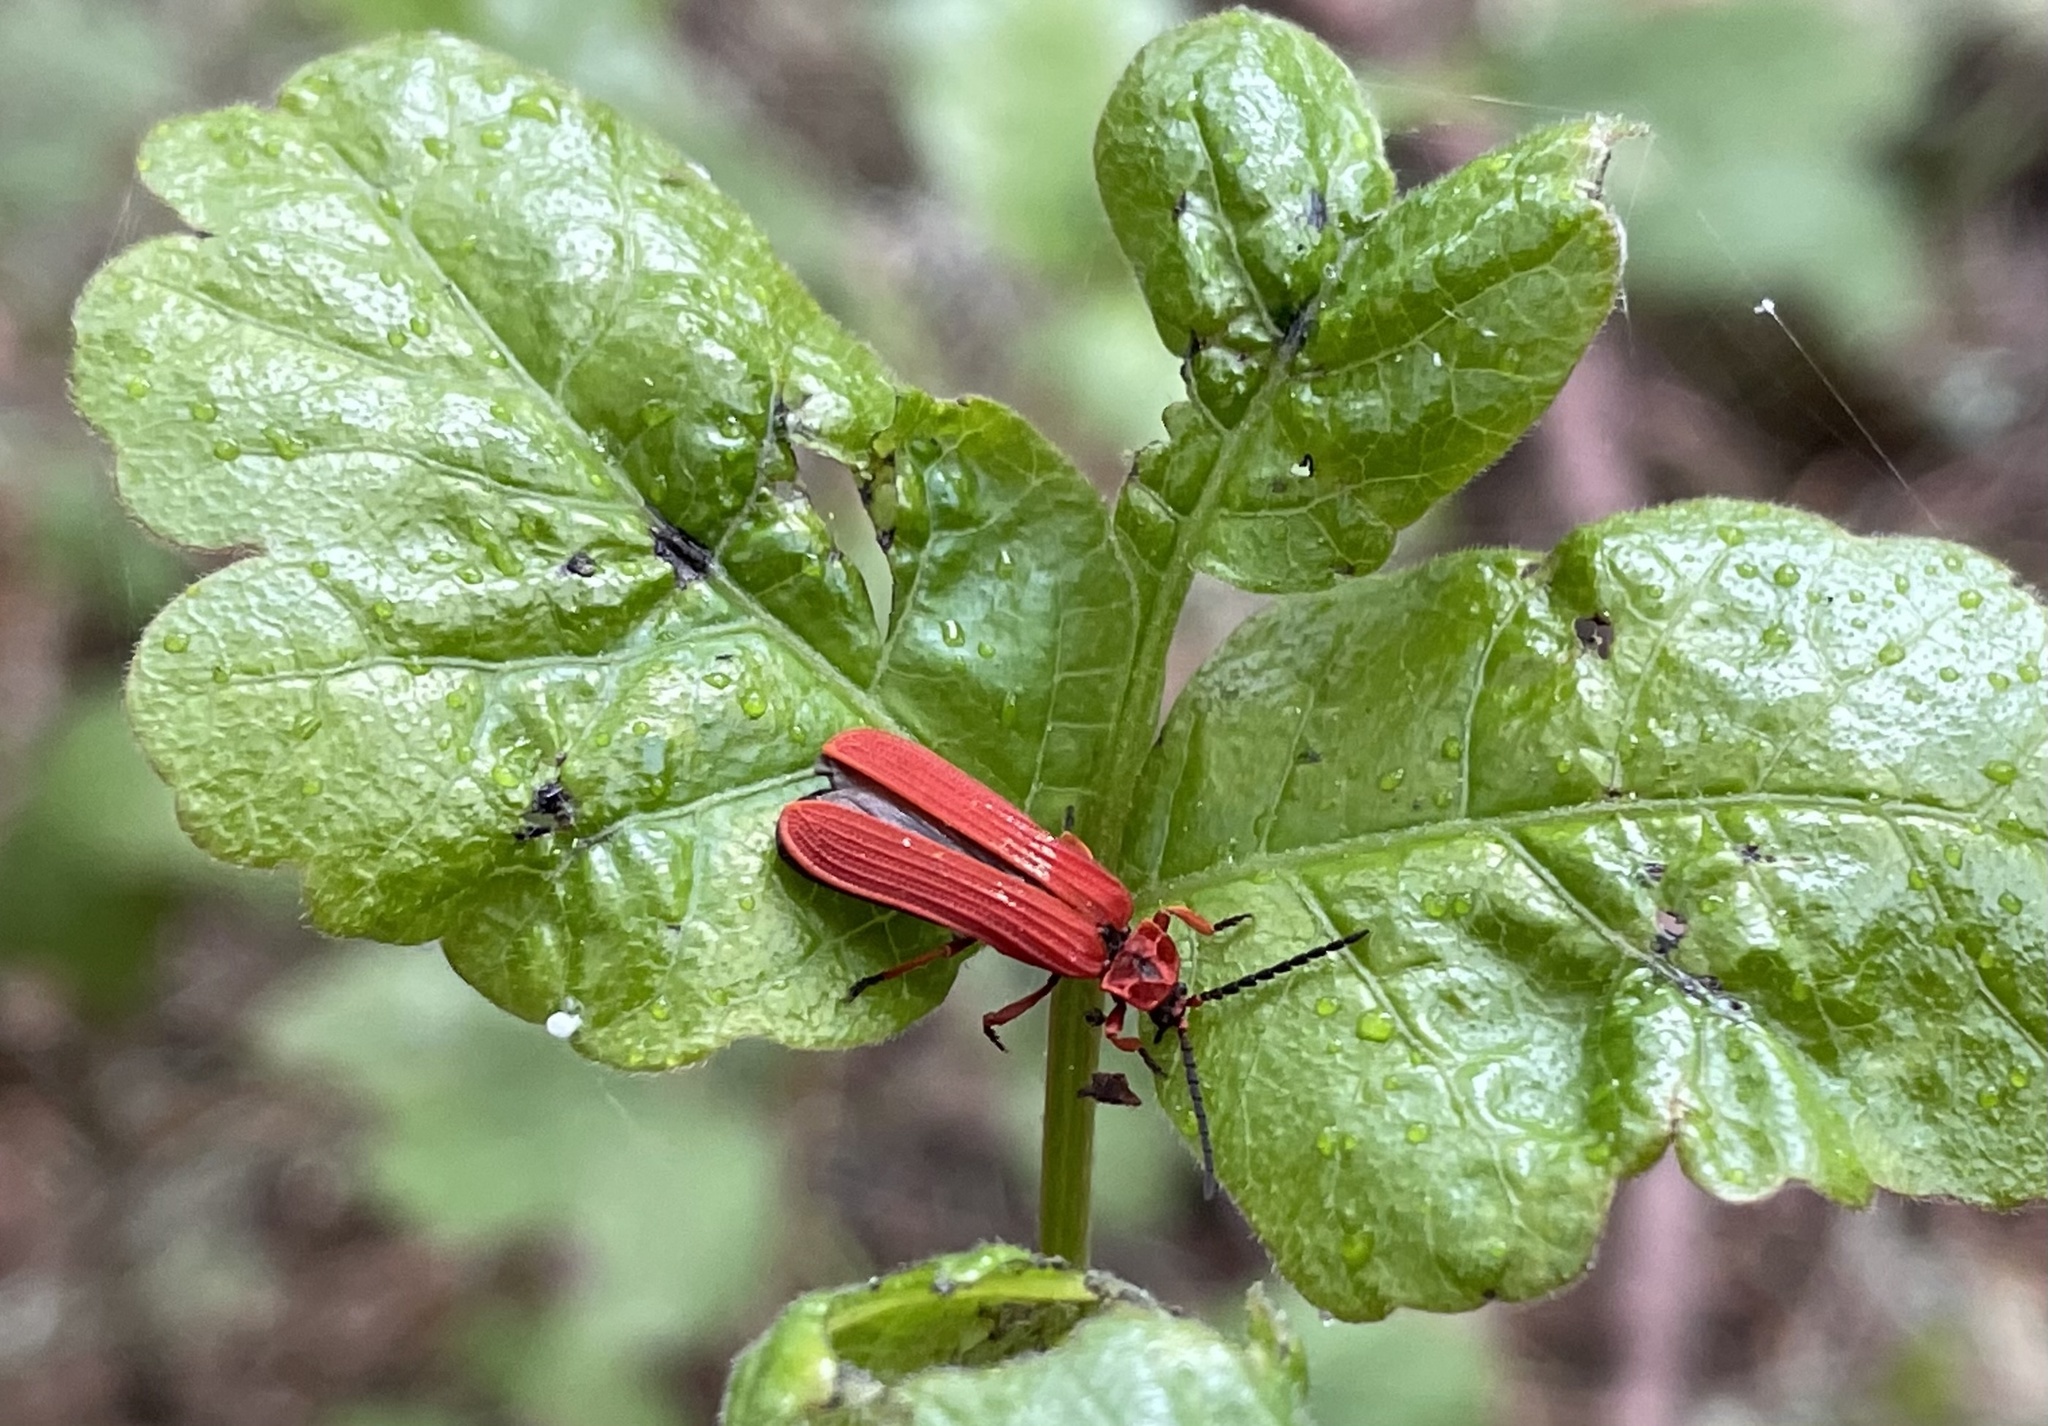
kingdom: Animalia
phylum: Arthropoda
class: Insecta
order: Coleoptera
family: Lycidae
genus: Dictyoptera
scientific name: Dictyoptera simplicipes
